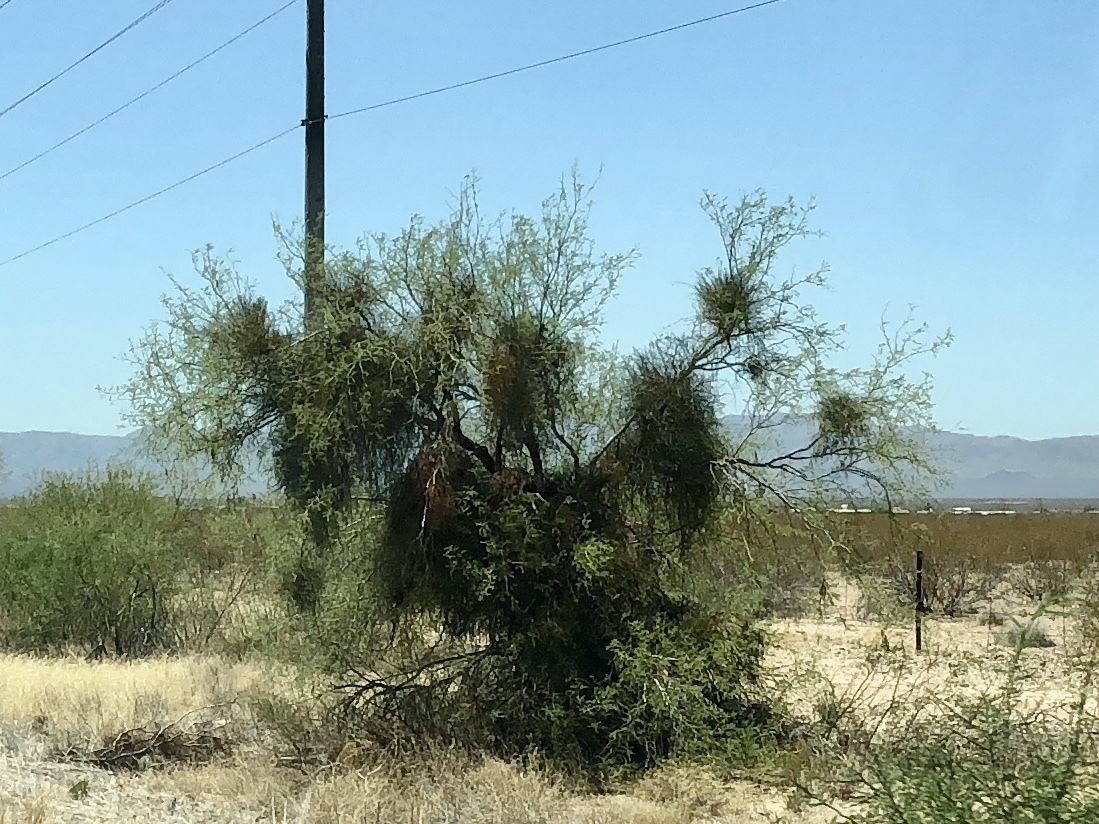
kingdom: Plantae
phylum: Tracheophyta
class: Magnoliopsida
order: Santalales
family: Viscaceae
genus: Phoradendron
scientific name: Phoradendron californicum
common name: Acacia mistletoe
